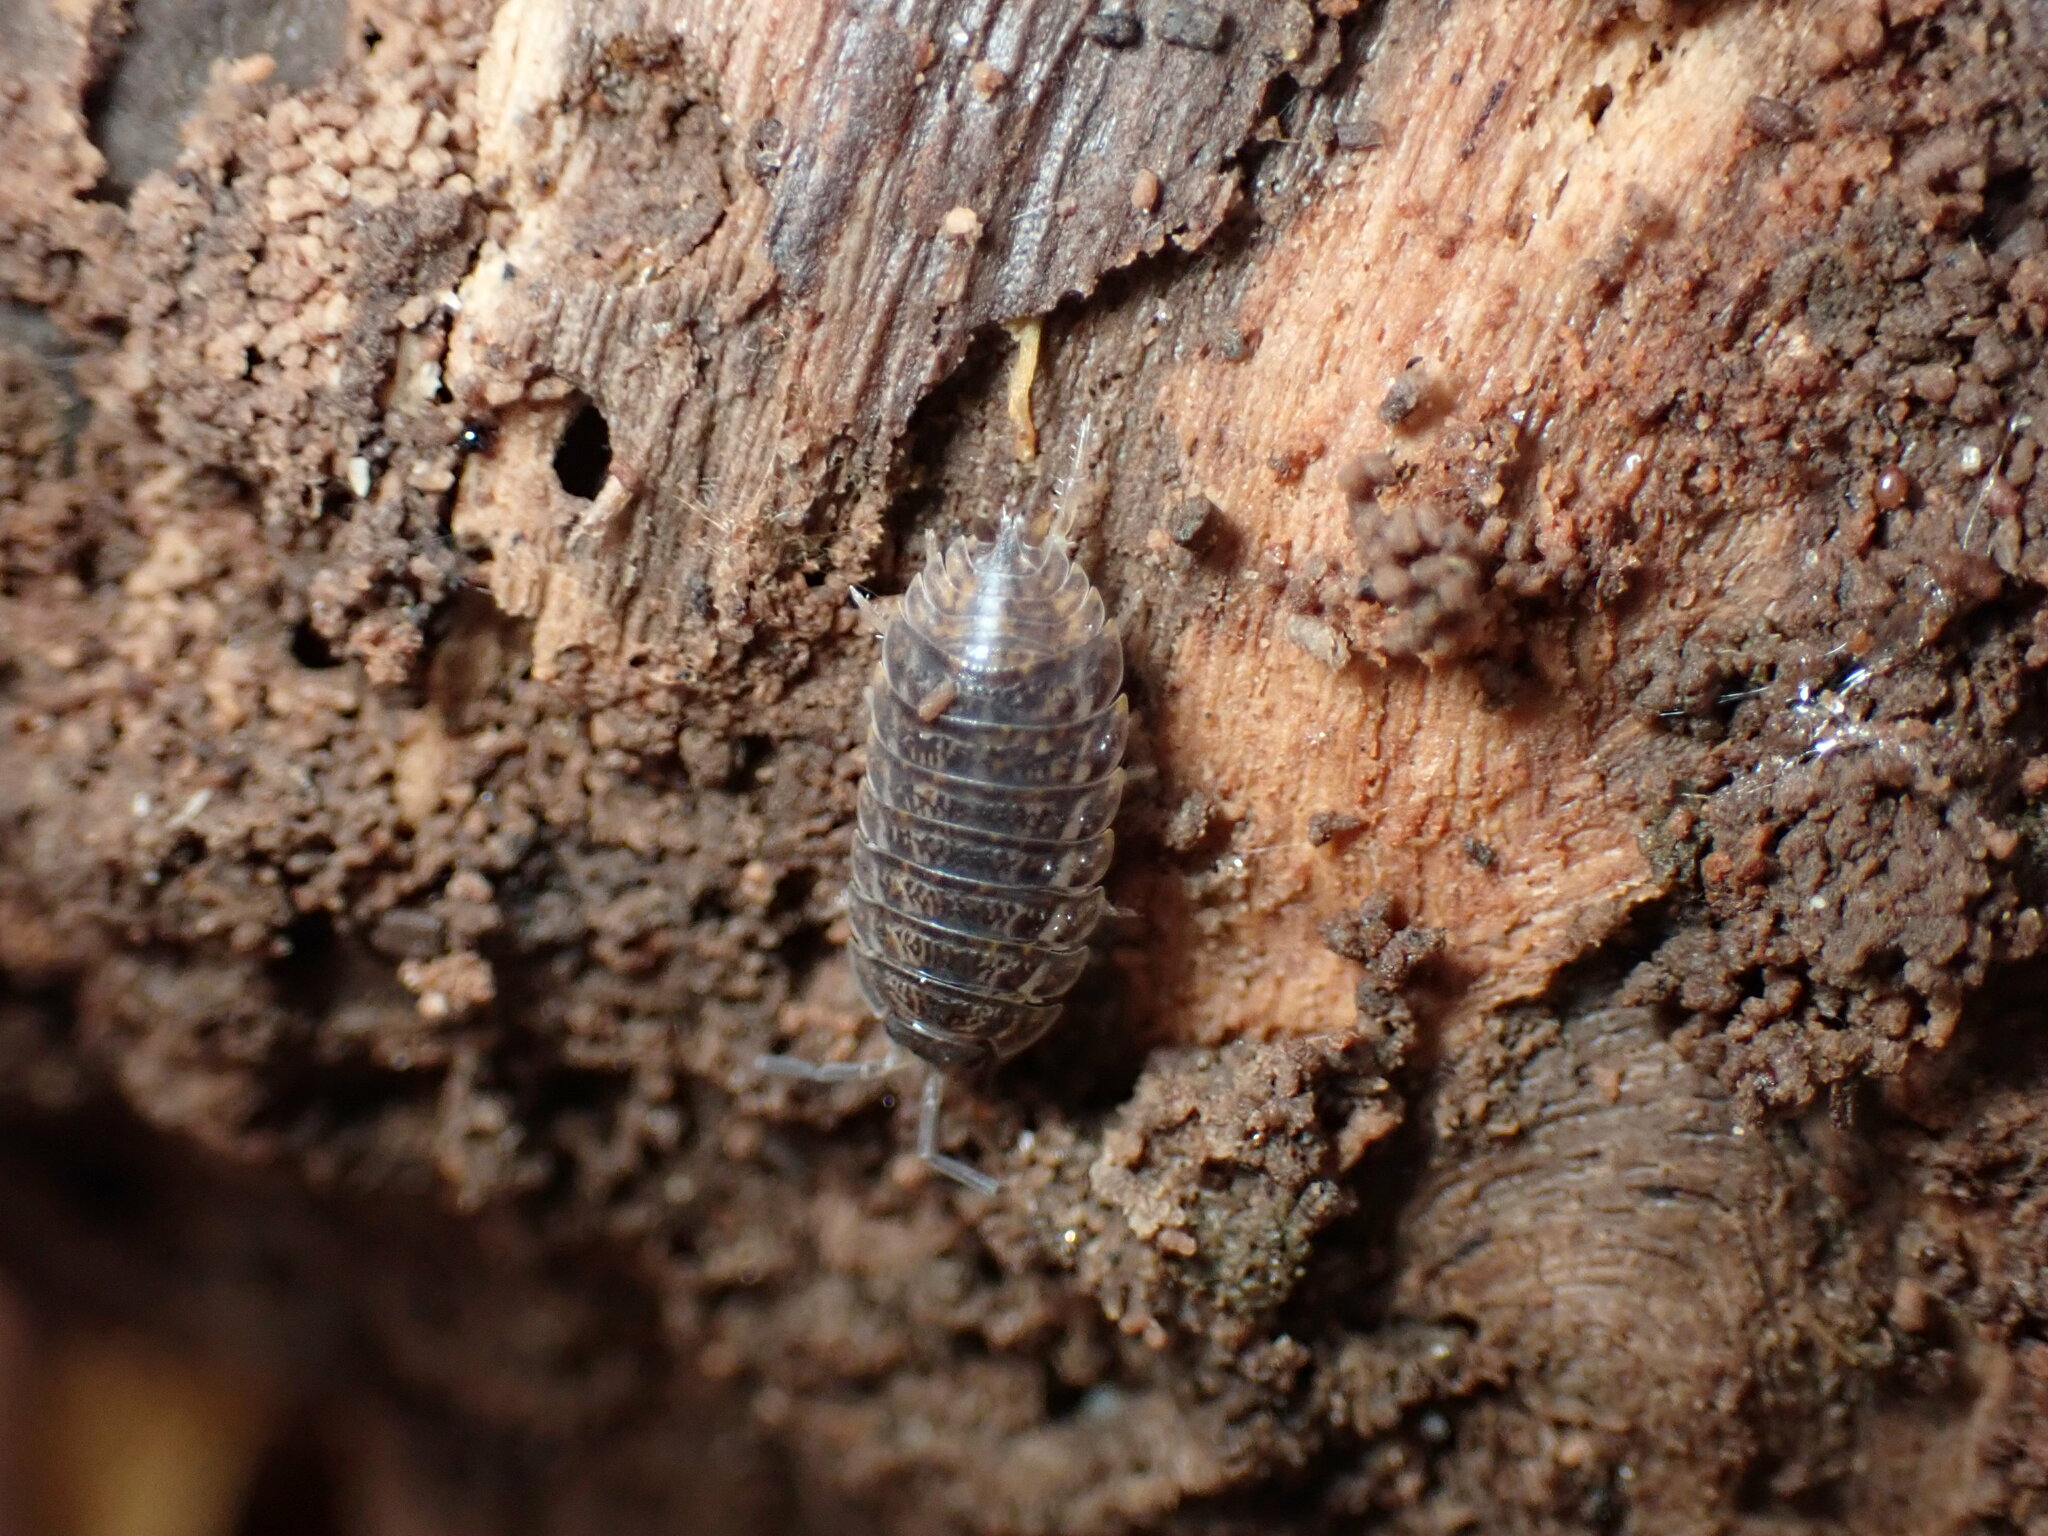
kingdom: Animalia
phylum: Arthropoda
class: Malacostraca
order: Isopoda
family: Trachelipodidae
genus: Trachelipus
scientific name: Trachelipus rathkii
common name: Isopod
